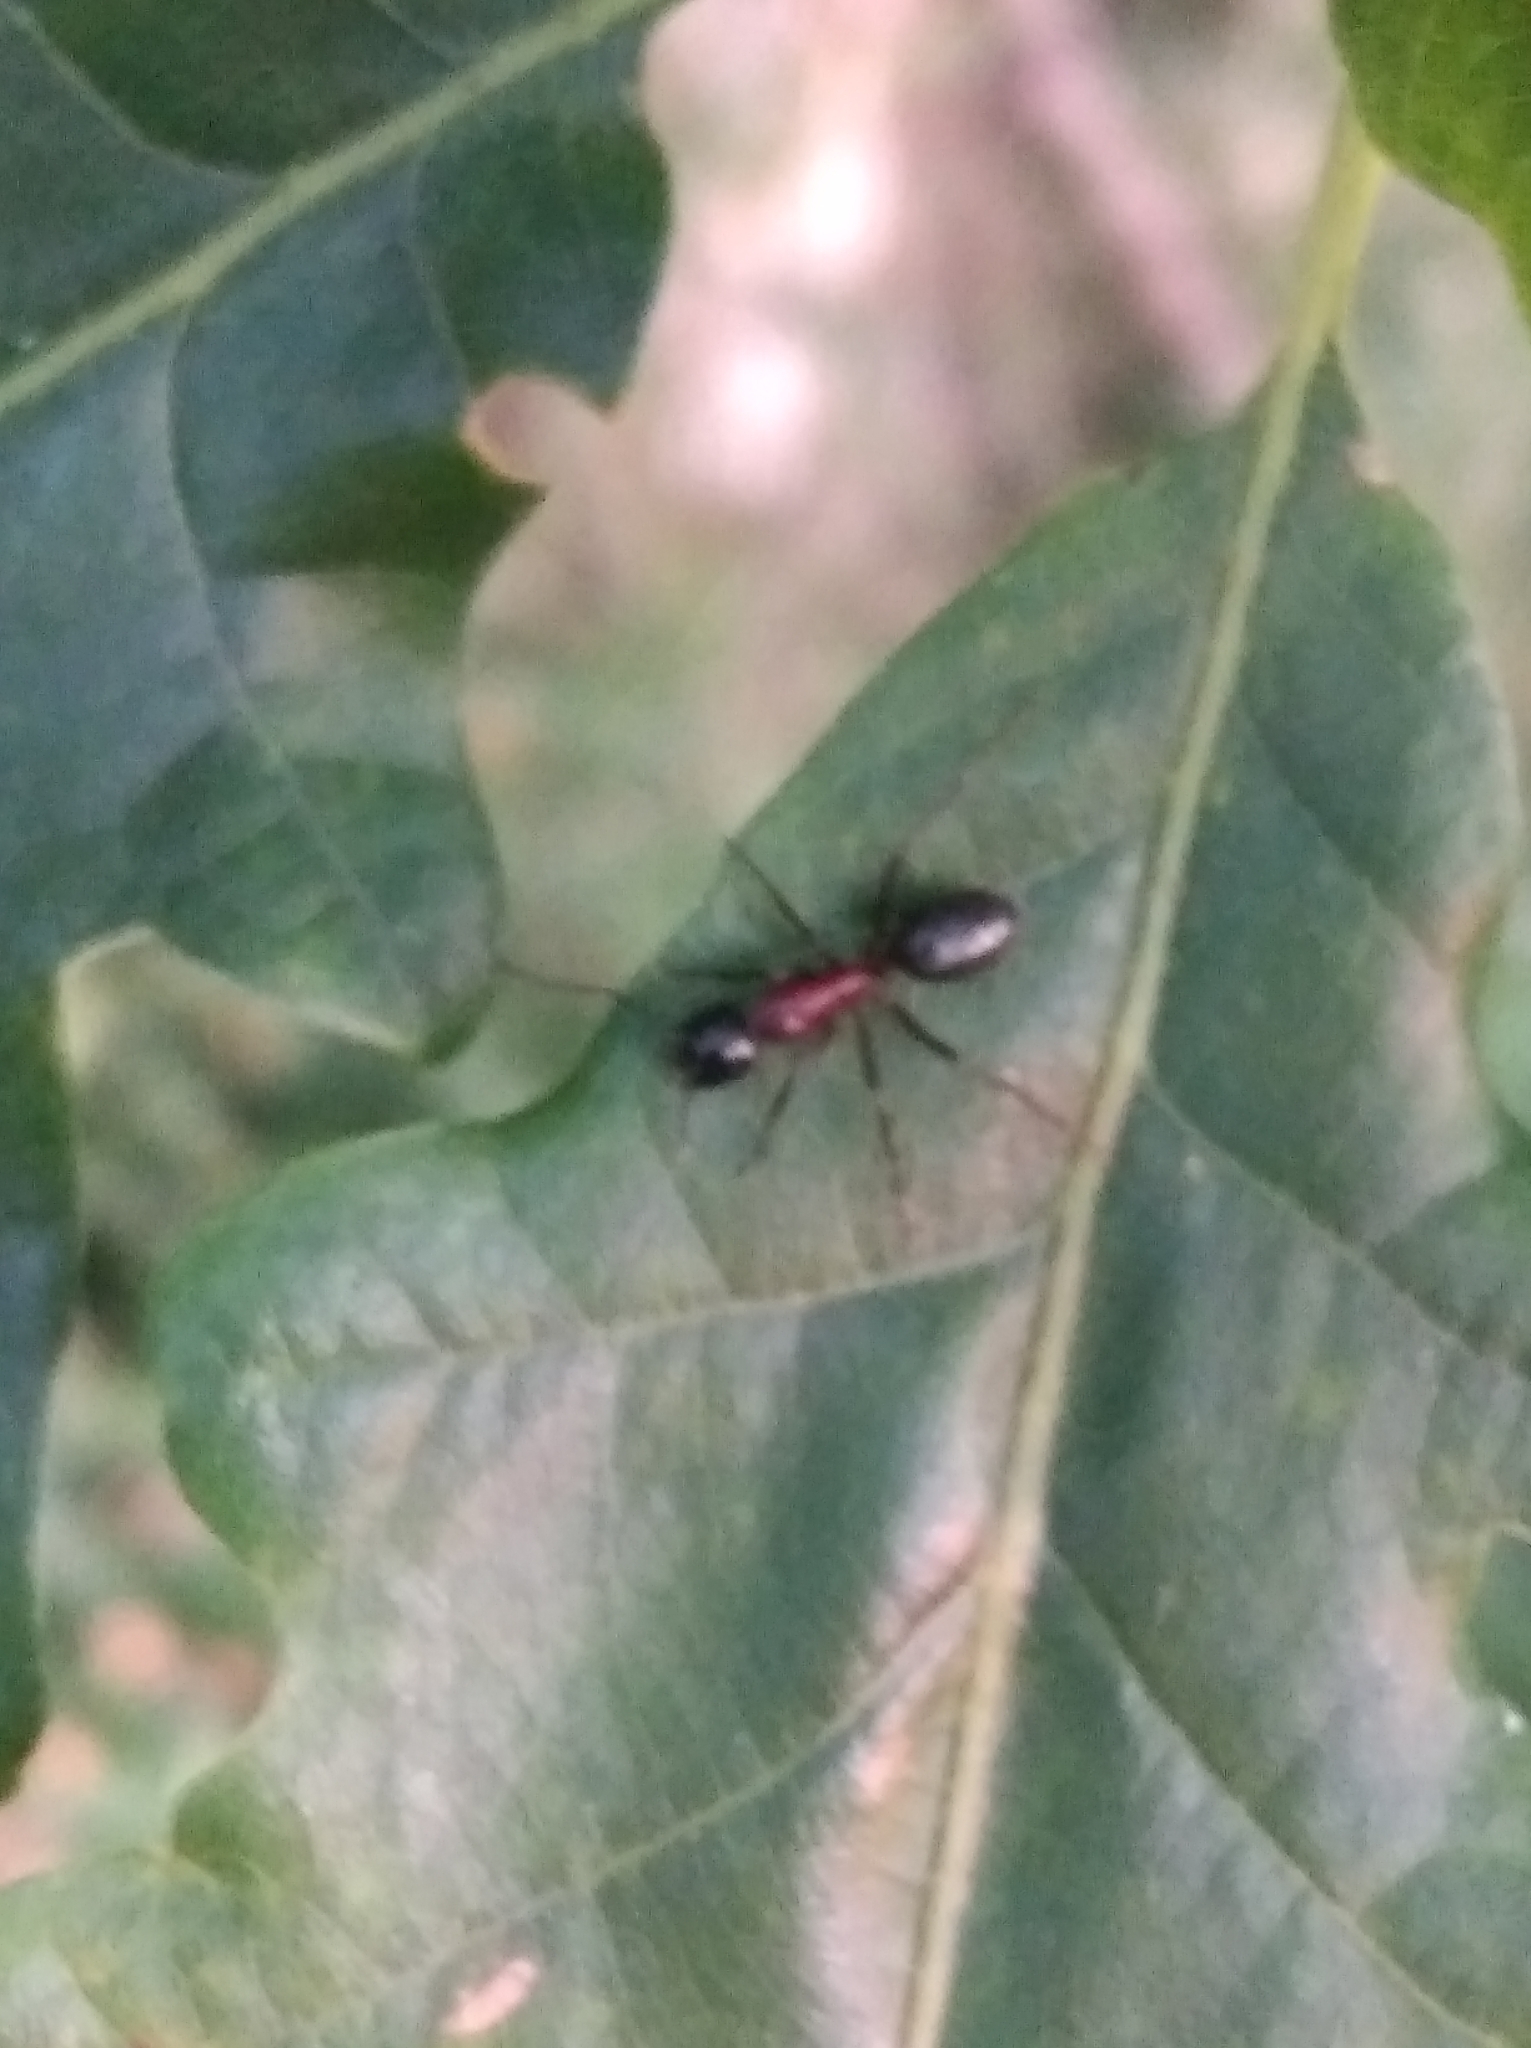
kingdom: Animalia
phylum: Arthropoda
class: Insecta
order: Hymenoptera
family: Formicidae
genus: Camponotus
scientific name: Camponotus ligniperdus
